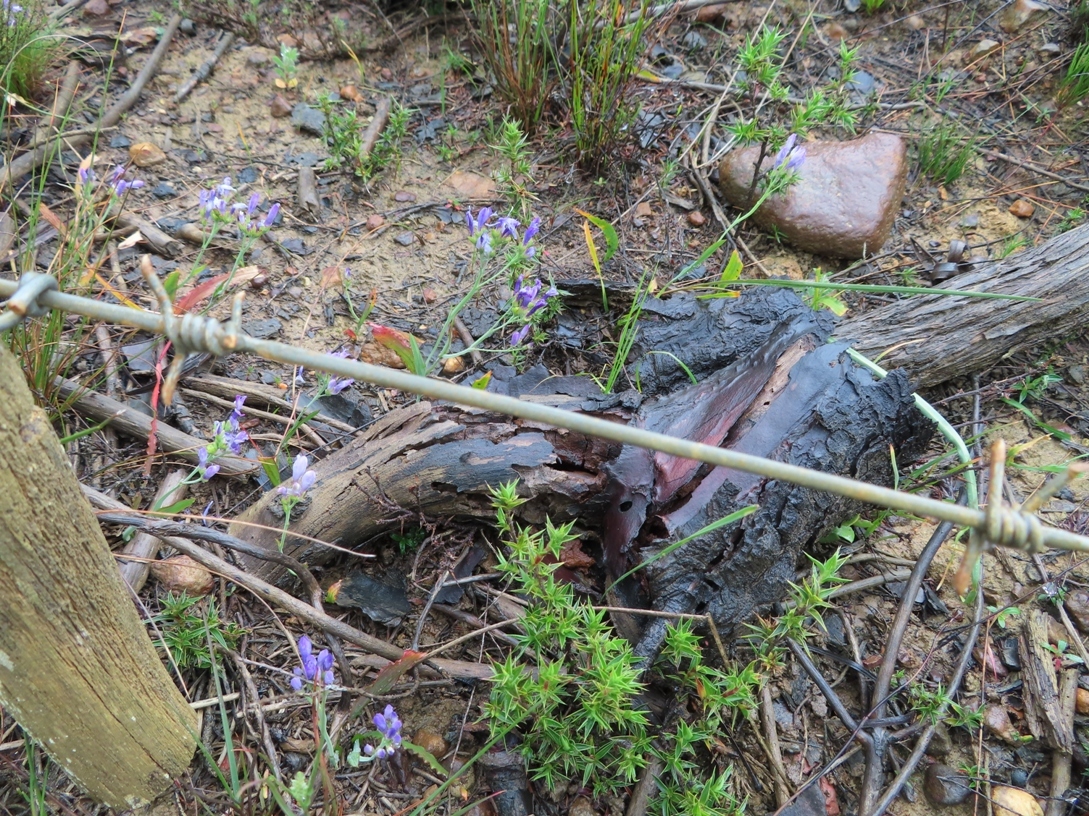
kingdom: Plantae
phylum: Tracheophyta
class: Liliopsida
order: Asparagales
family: Iridaceae
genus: Codonorhiza
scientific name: Codonorhiza corymbosa
